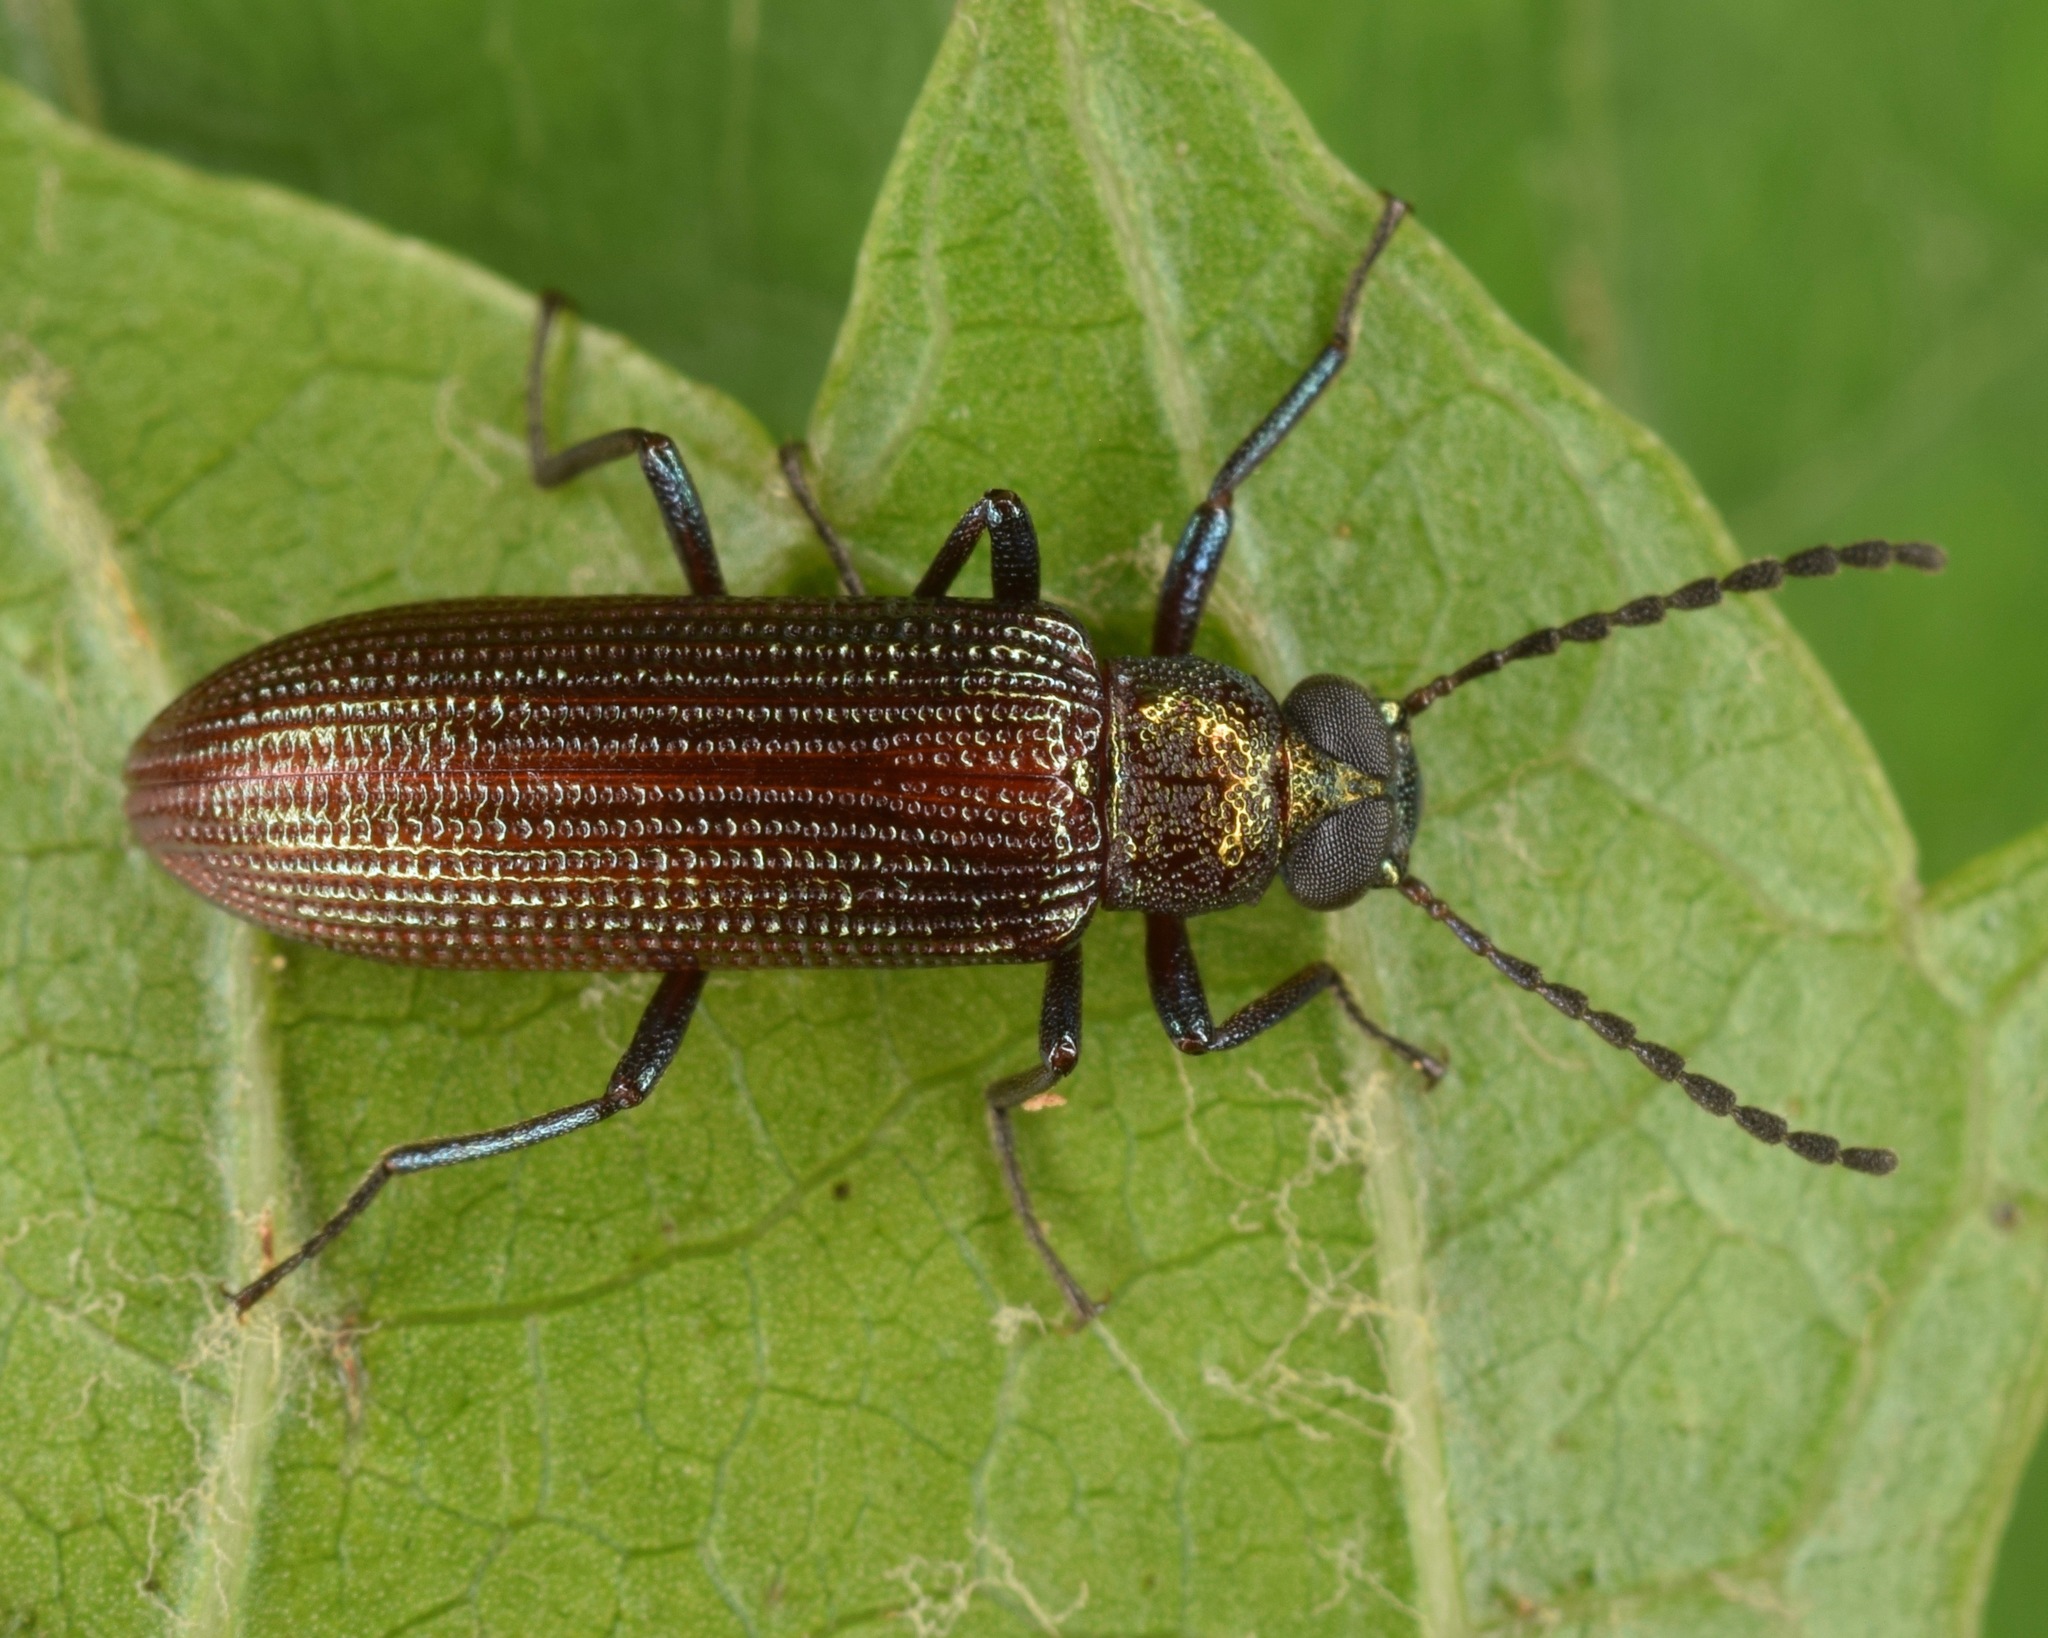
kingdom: Animalia
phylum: Arthropoda
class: Insecta
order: Coleoptera
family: Tenebrionidae
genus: Strongylium
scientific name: Strongylium
